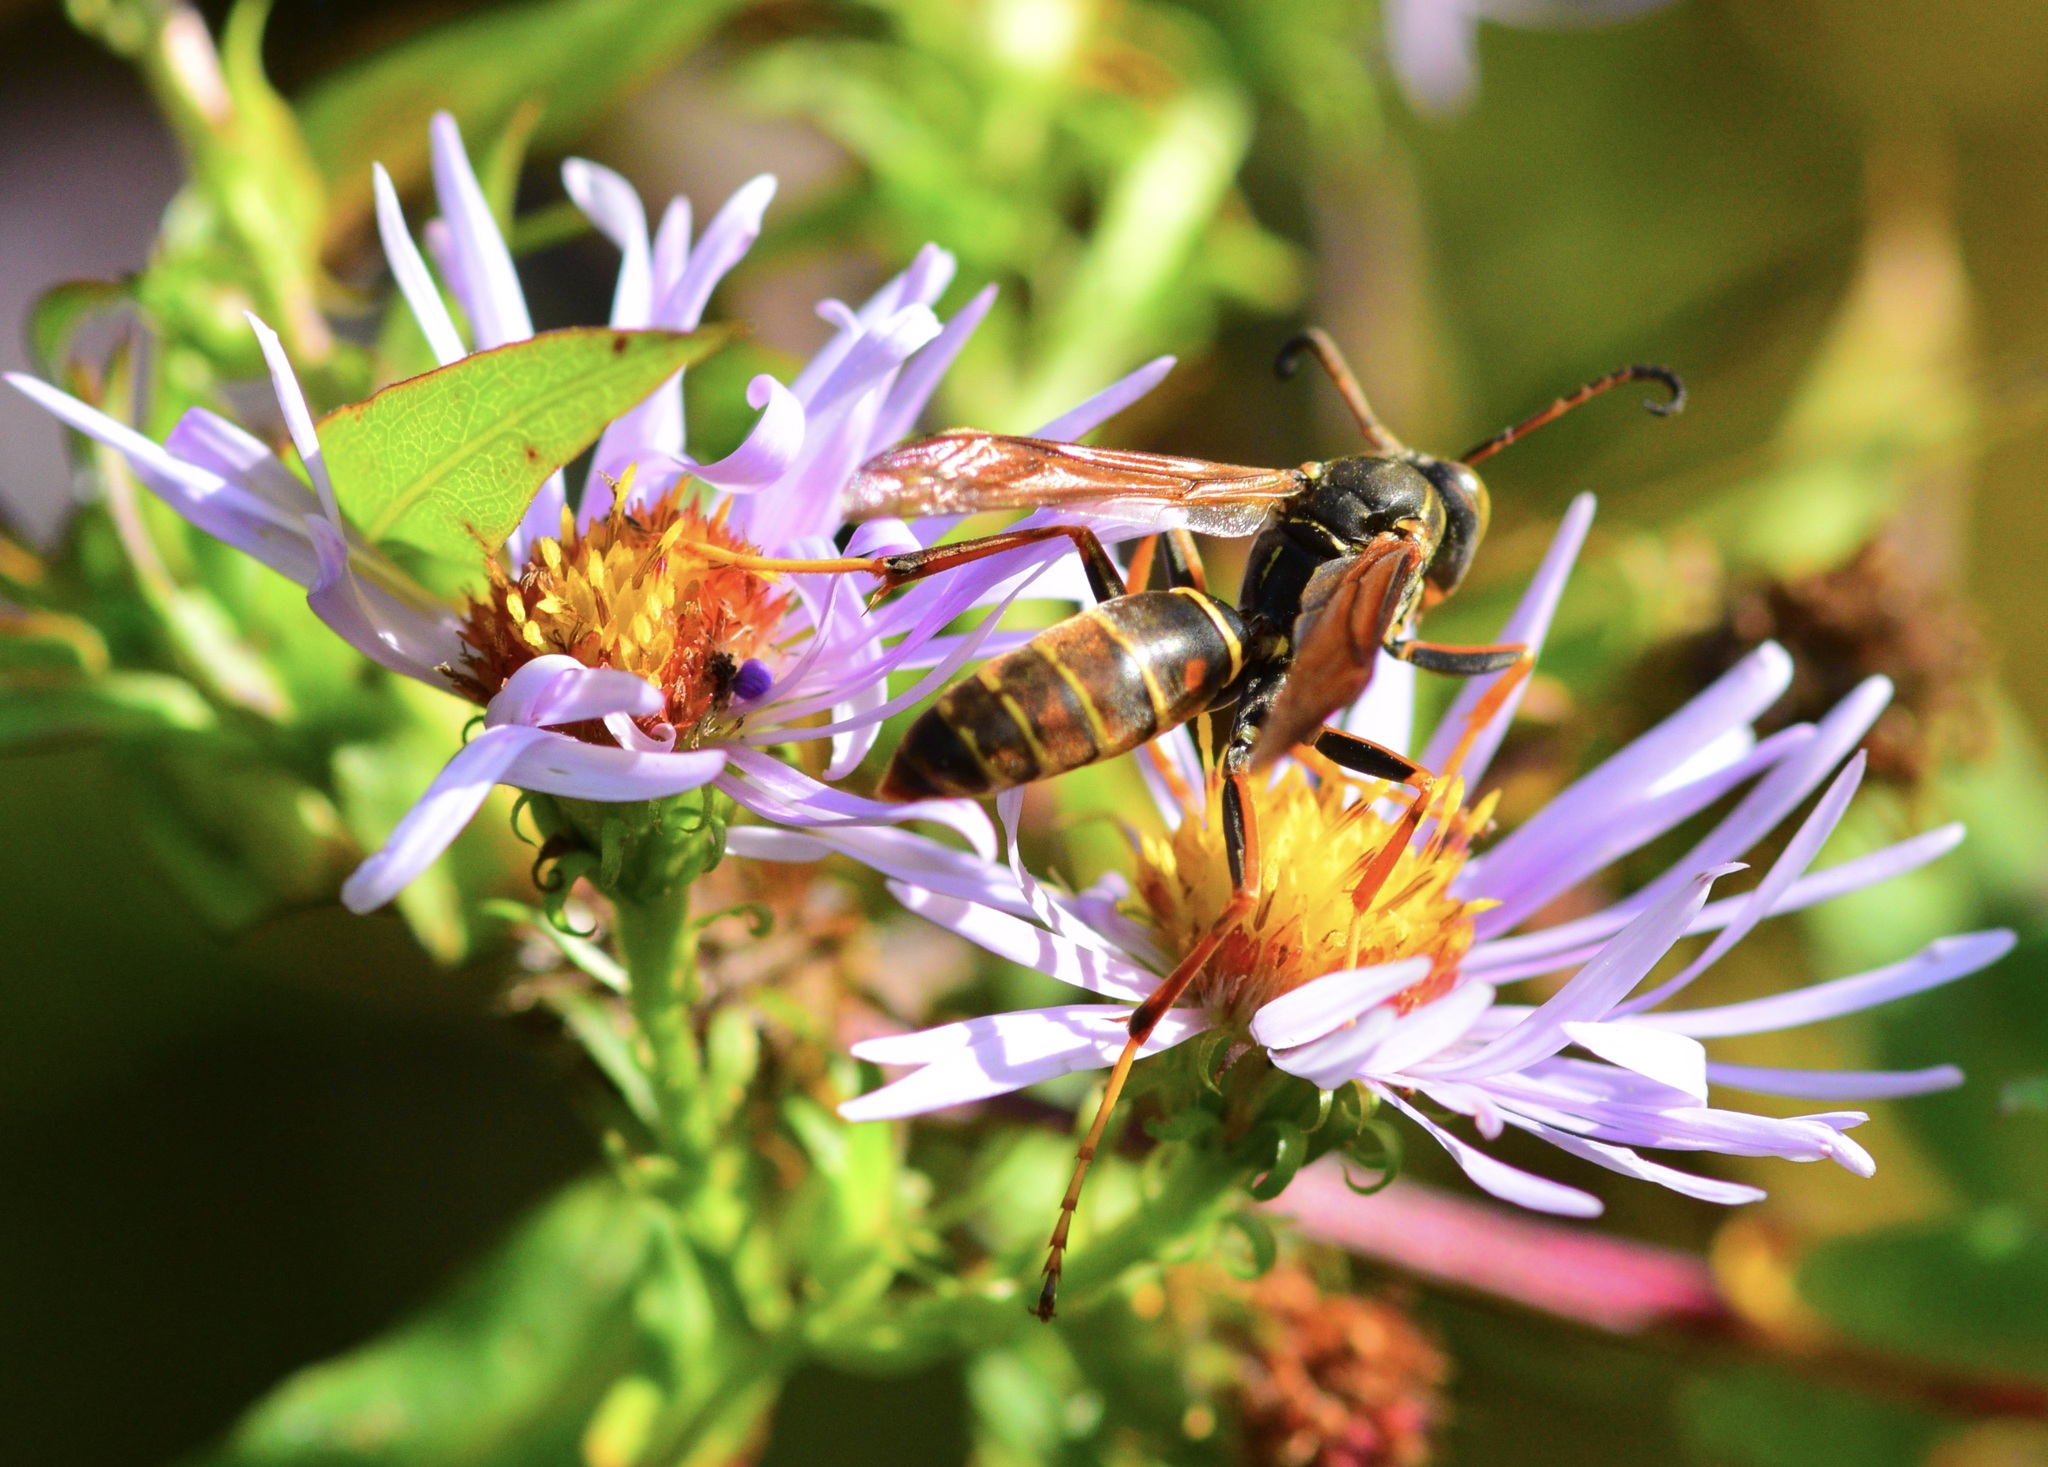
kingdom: Animalia
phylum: Arthropoda
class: Insecta
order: Hymenoptera
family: Eumenidae
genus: Polistes
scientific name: Polistes fuscatus
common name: Dark paper wasp
